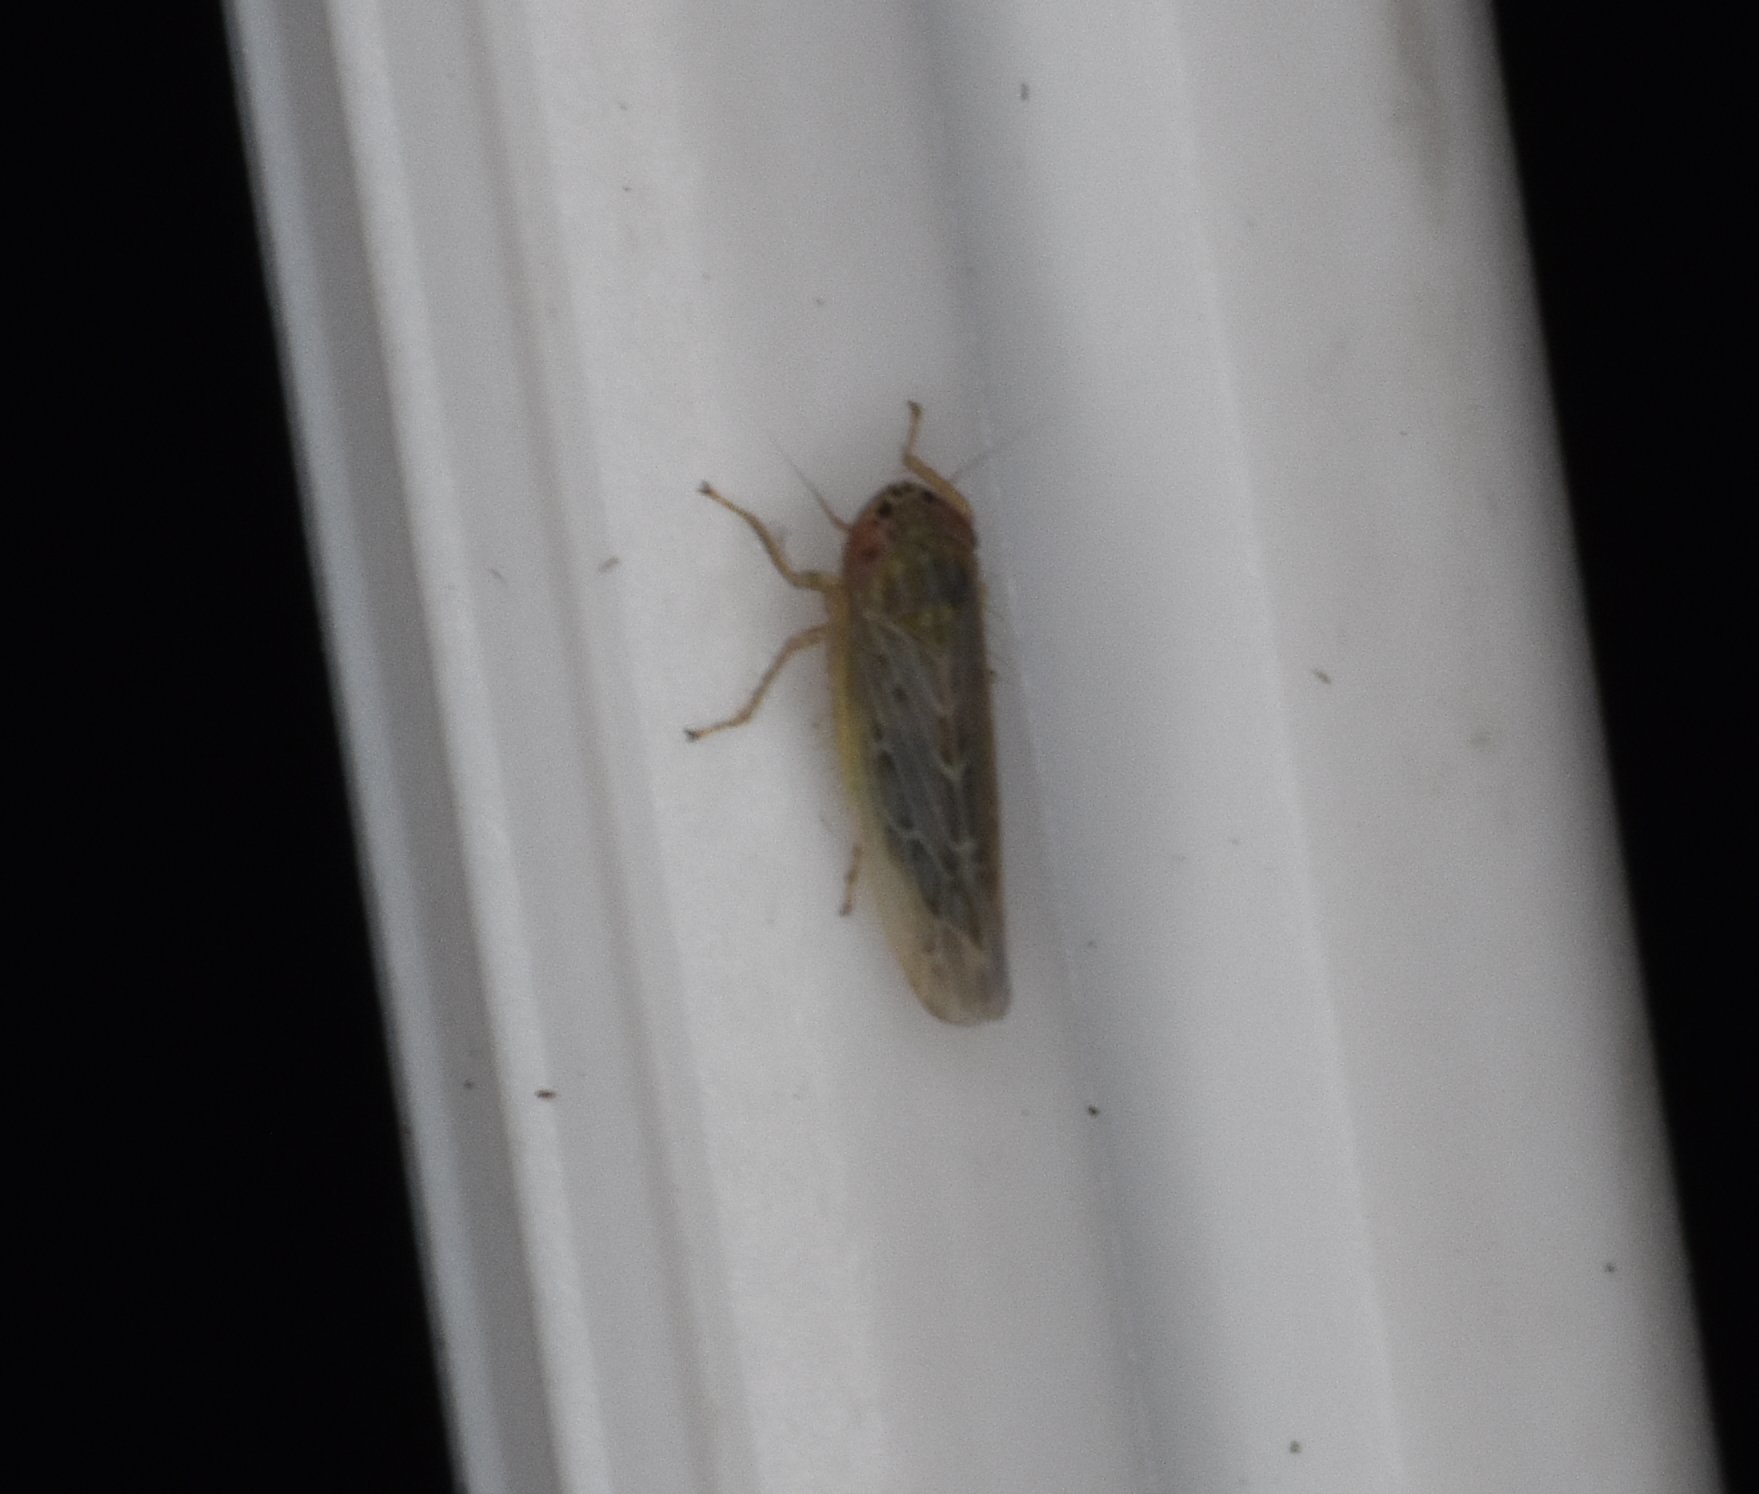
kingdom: Animalia
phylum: Arthropoda
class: Insecta
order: Hemiptera
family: Cicadellidae
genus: Graminella
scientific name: Graminella sonora
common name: Lesser lawn leafhopper
